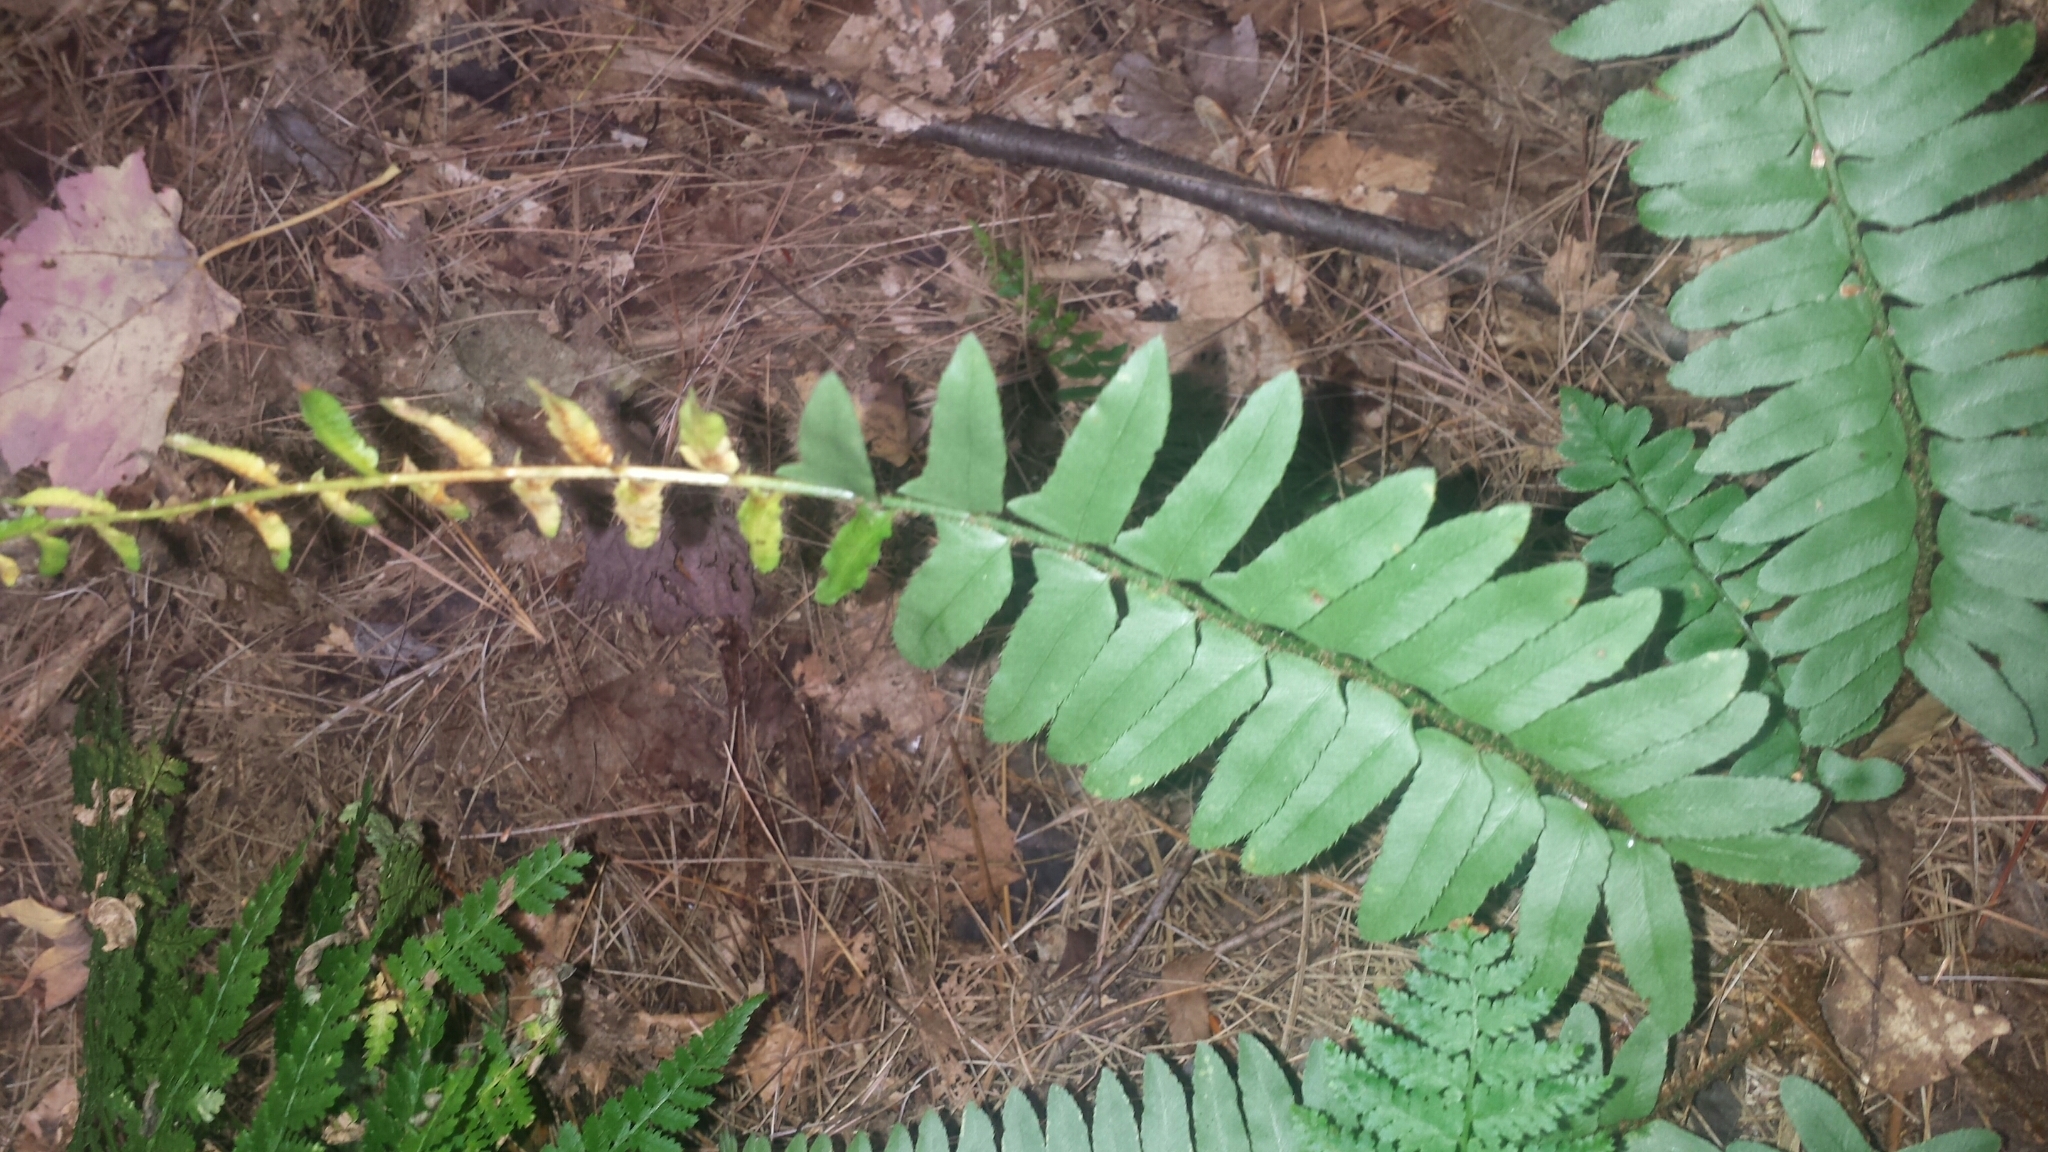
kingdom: Plantae
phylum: Tracheophyta
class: Polypodiopsida
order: Polypodiales
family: Dryopteridaceae
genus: Polystichum
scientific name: Polystichum acrostichoides
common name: Christmas fern
